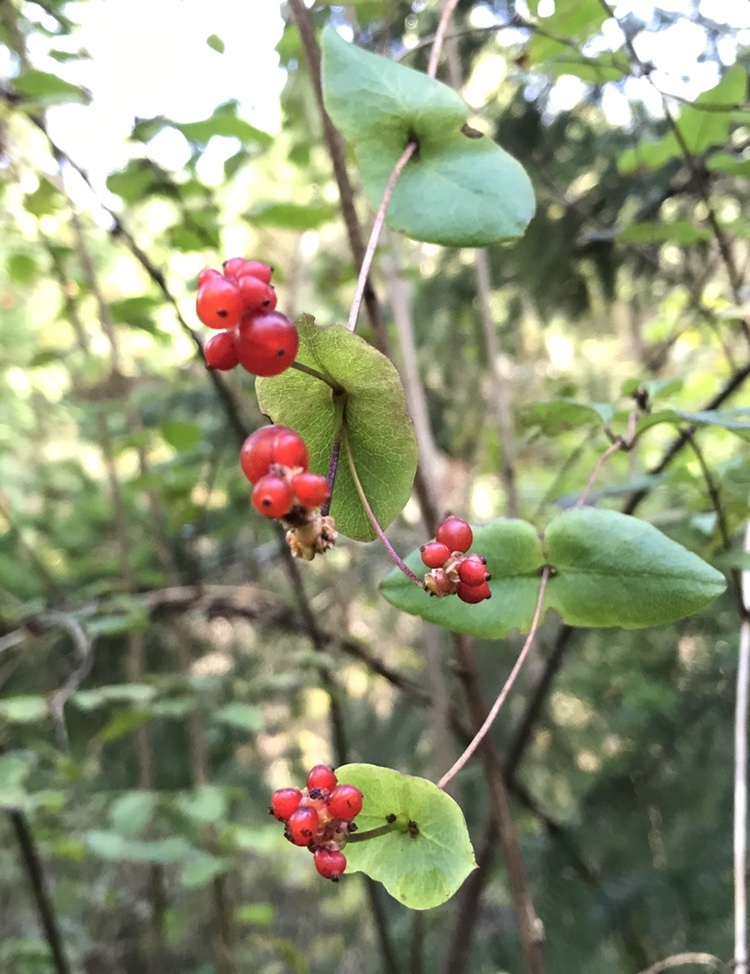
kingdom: Plantae
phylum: Tracheophyta
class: Magnoliopsida
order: Dipsacales
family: Caprifoliaceae
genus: Lonicera
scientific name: Lonicera hispidula
